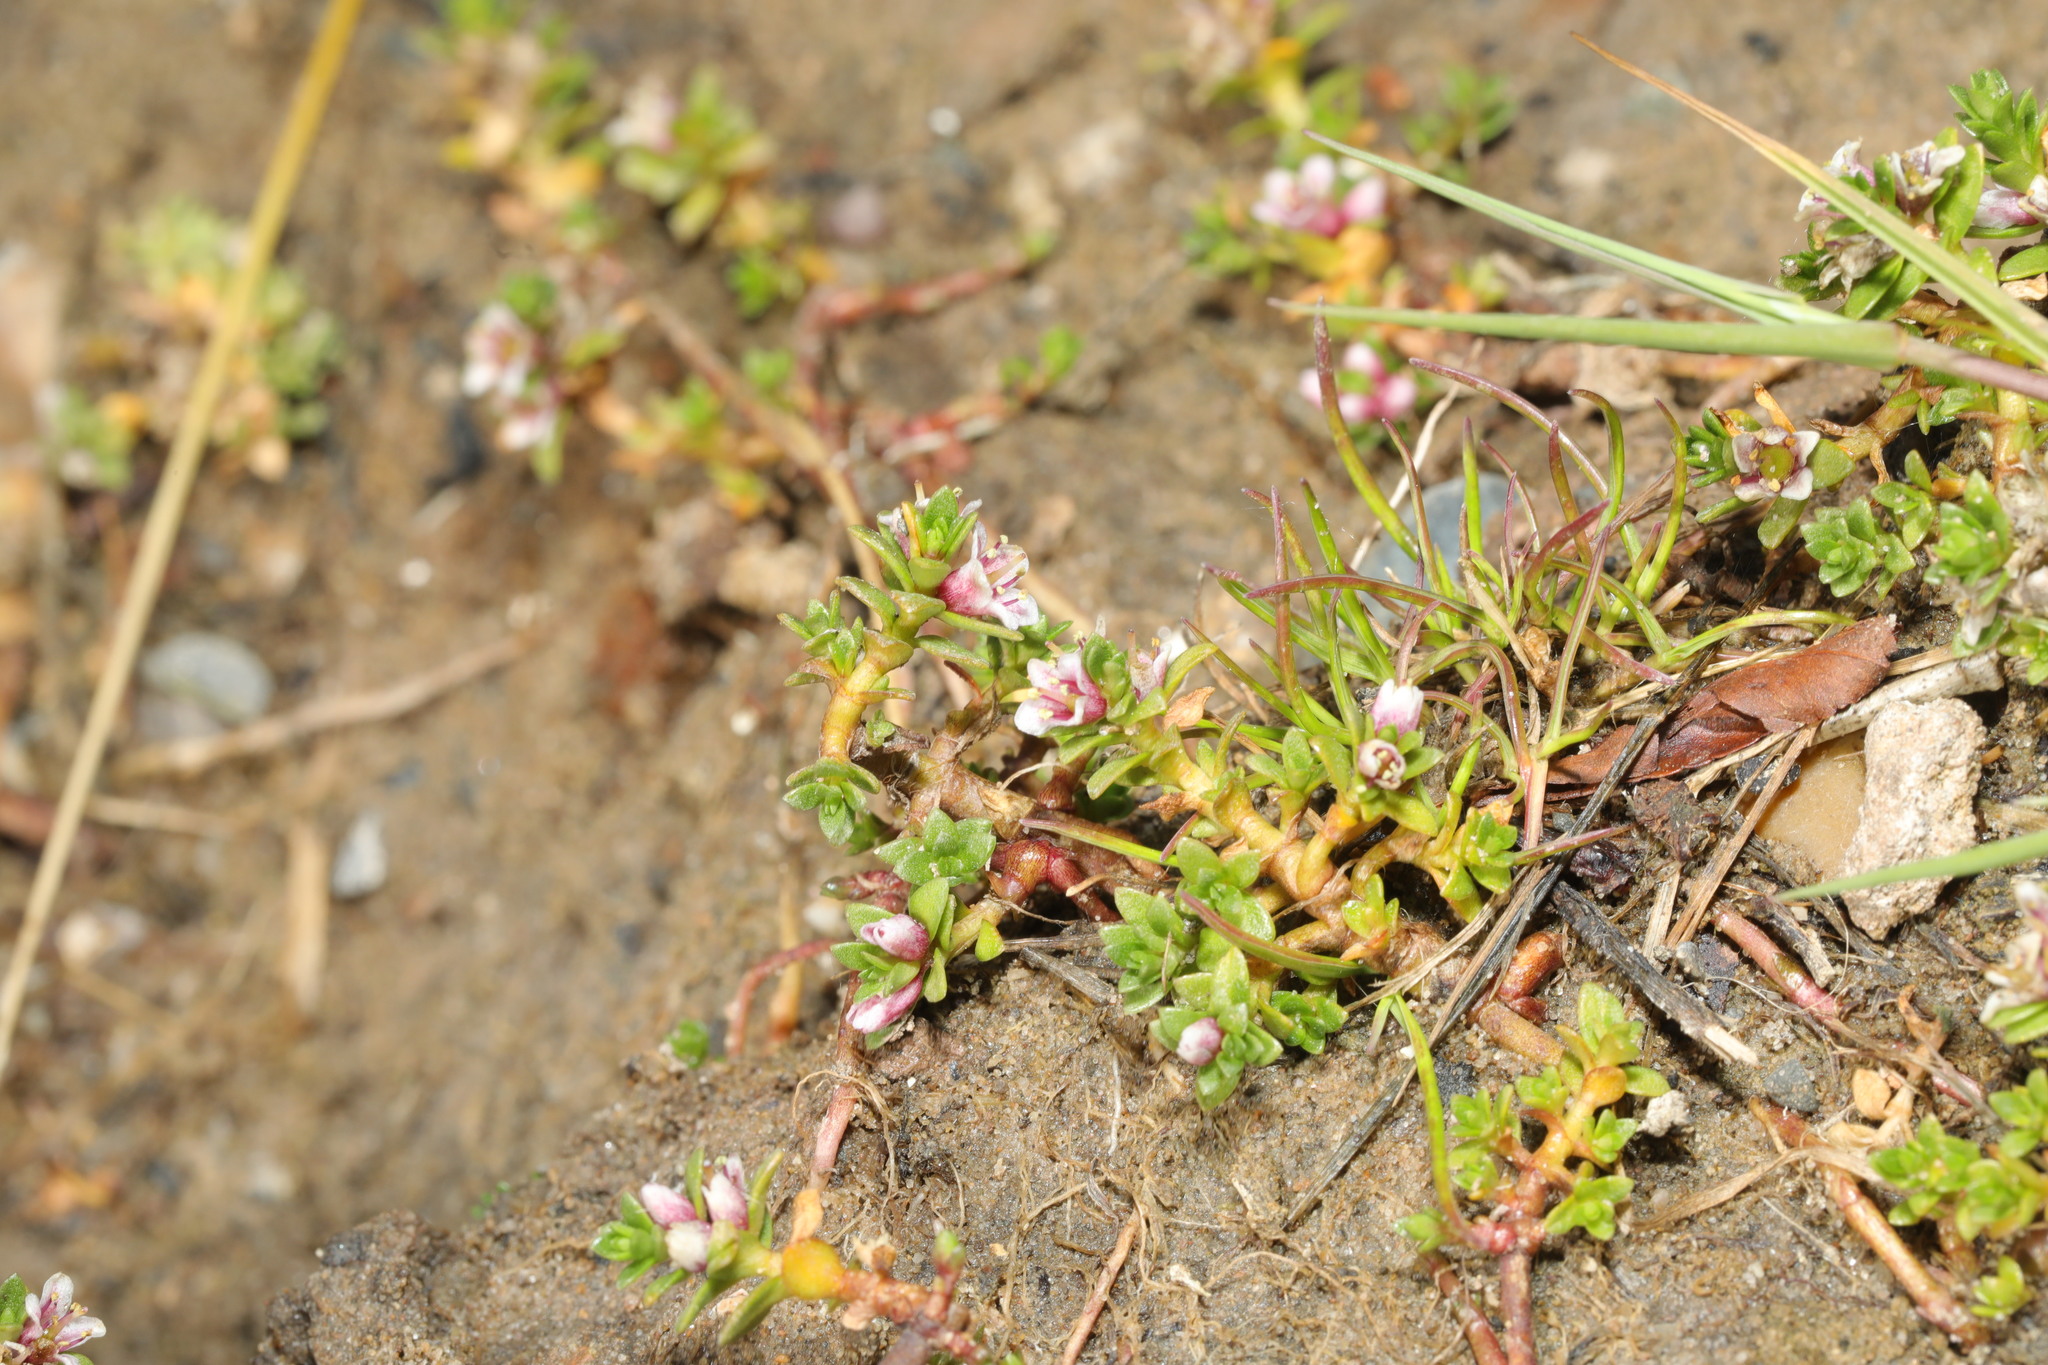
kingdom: Plantae
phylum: Tracheophyta
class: Magnoliopsida
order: Ericales
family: Primulaceae
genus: Lysimachia
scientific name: Lysimachia maritima
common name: Sea milkwort
